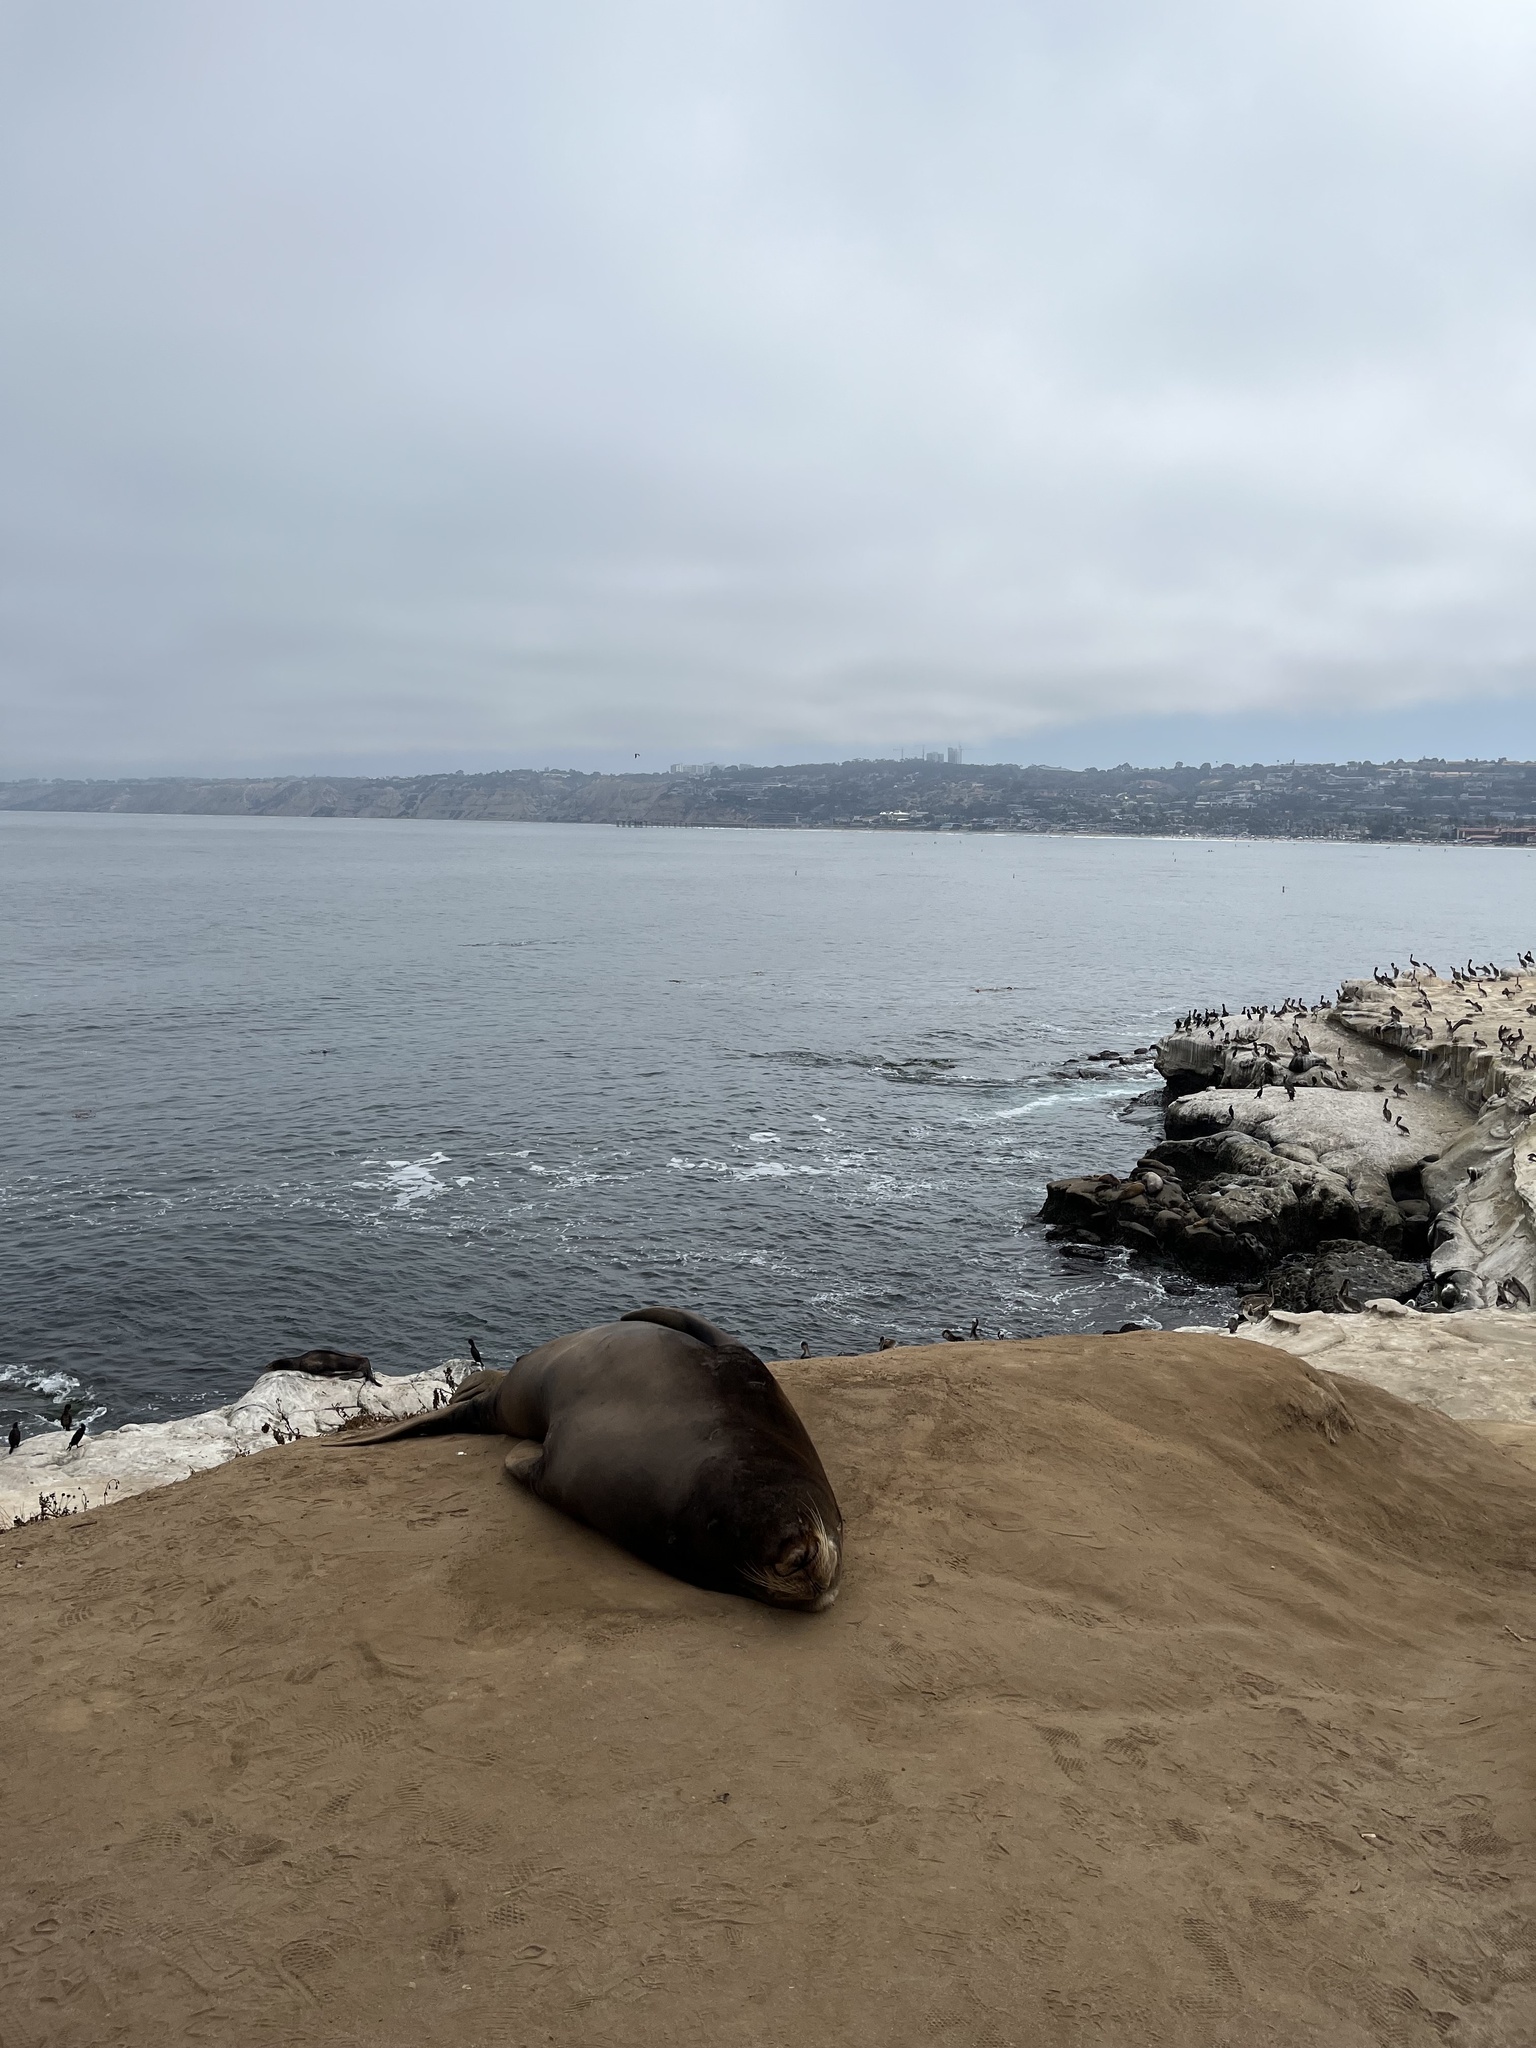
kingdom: Animalia
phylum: Chordata
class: Mammalia
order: Carnivora
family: Otariidae
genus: Zalophus
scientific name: Zalophus californianus
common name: California sea lion
